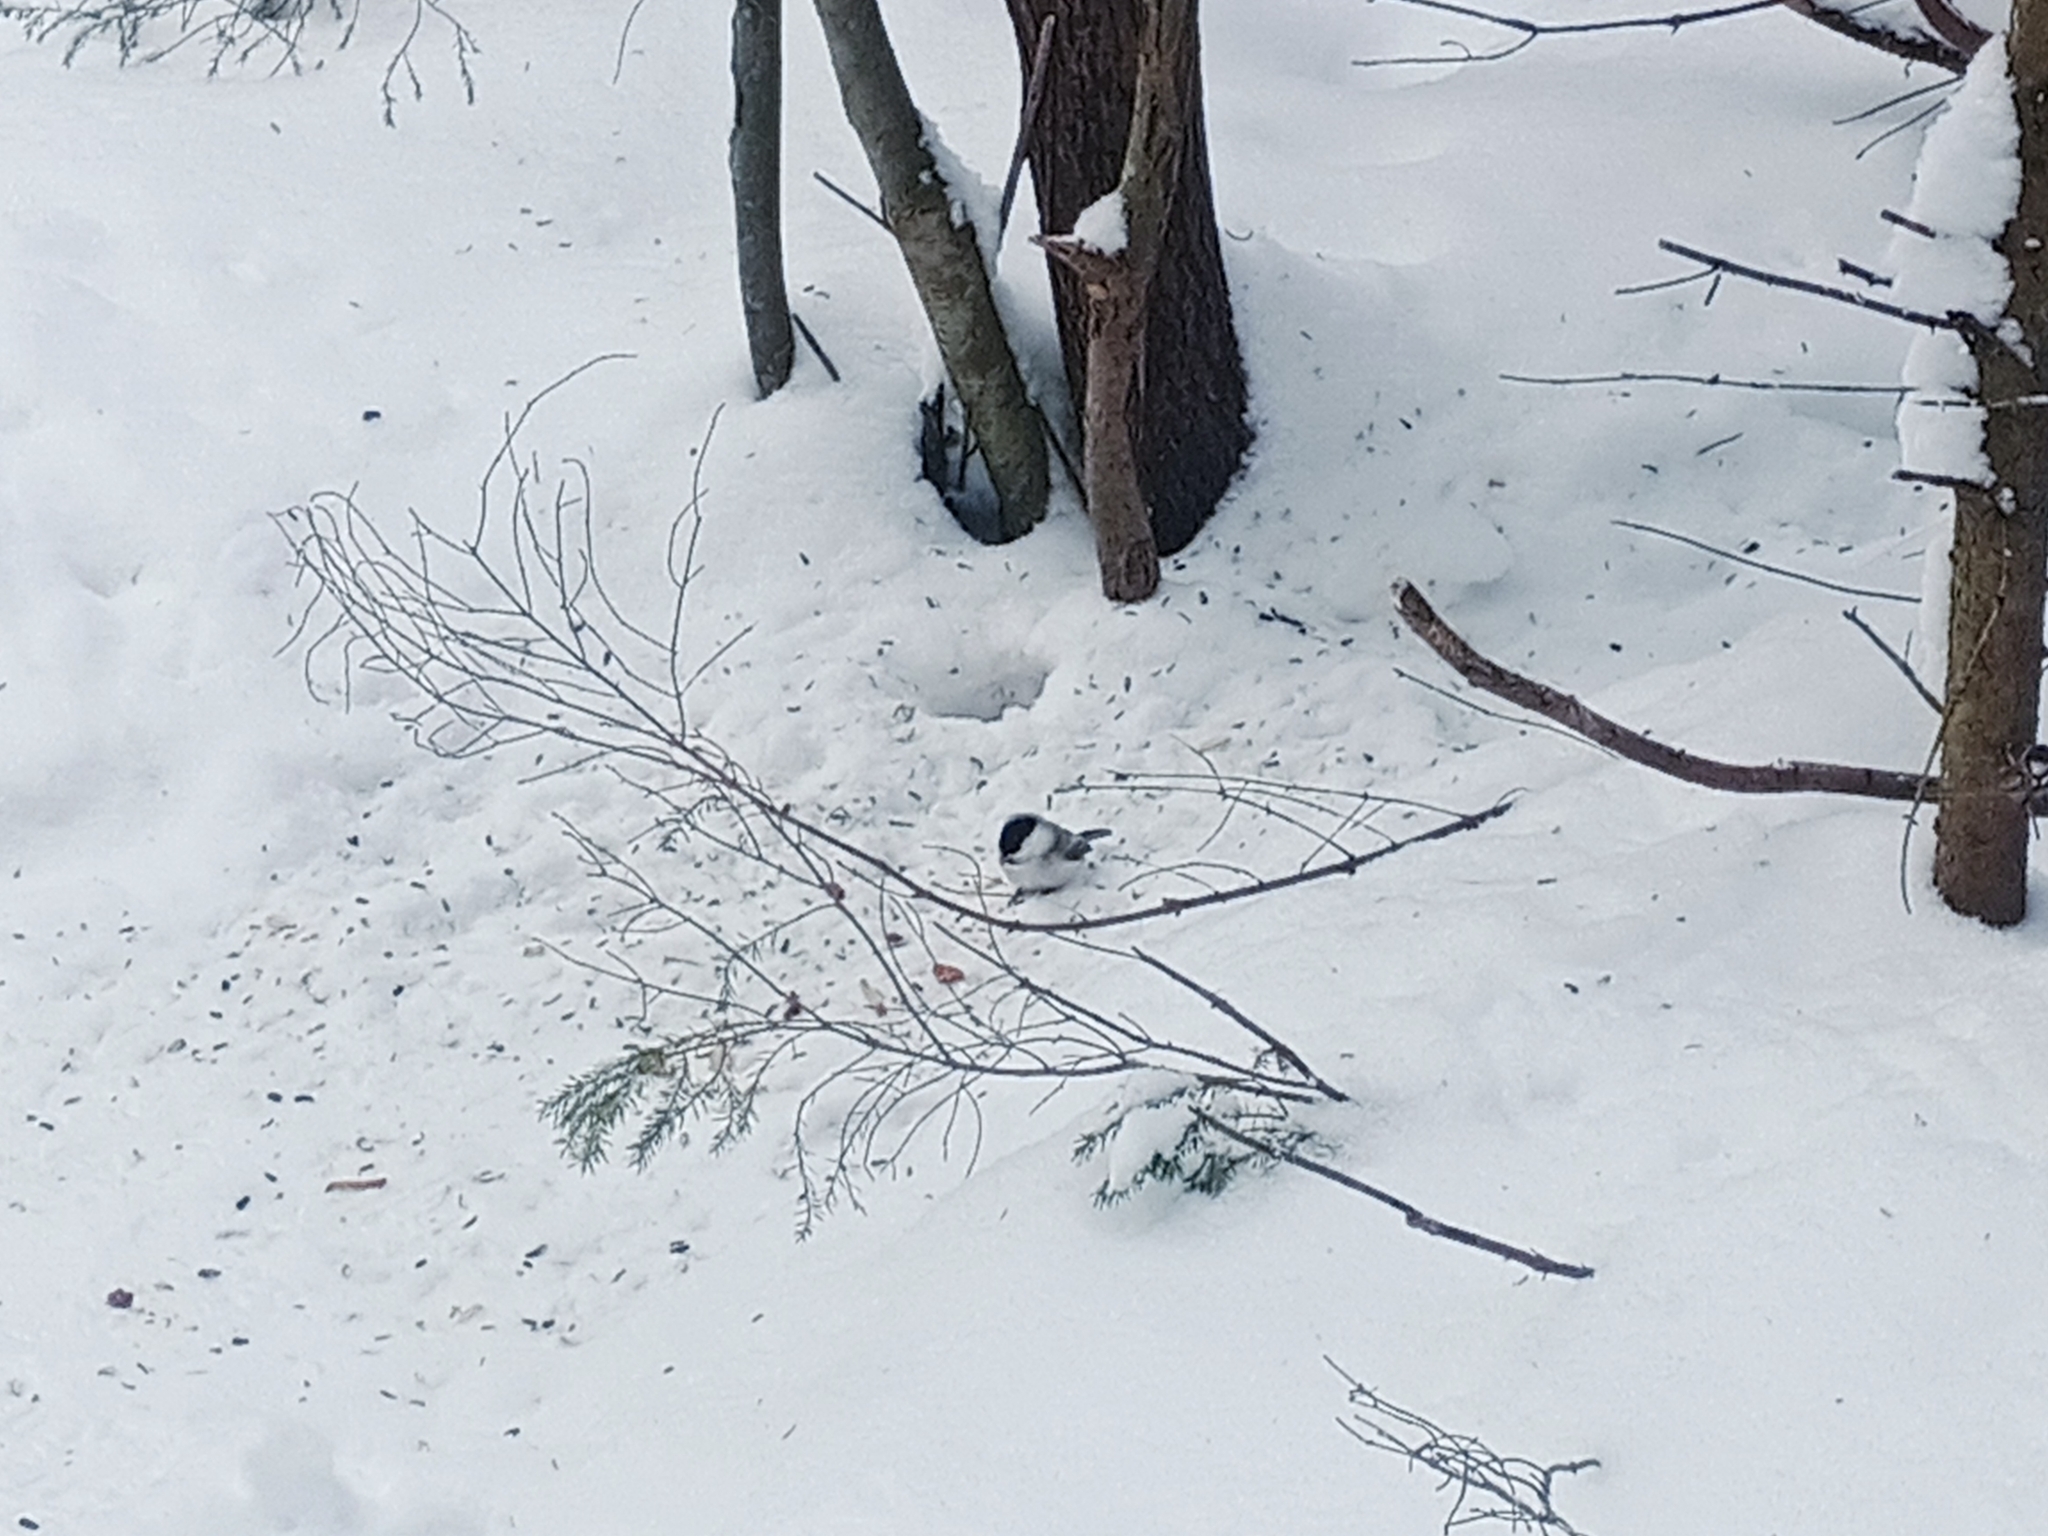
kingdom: Animalia
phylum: Chordata
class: Aves
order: Passeriformes
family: Paridae
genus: Poecile
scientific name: Poecile montanus
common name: Willow tit
